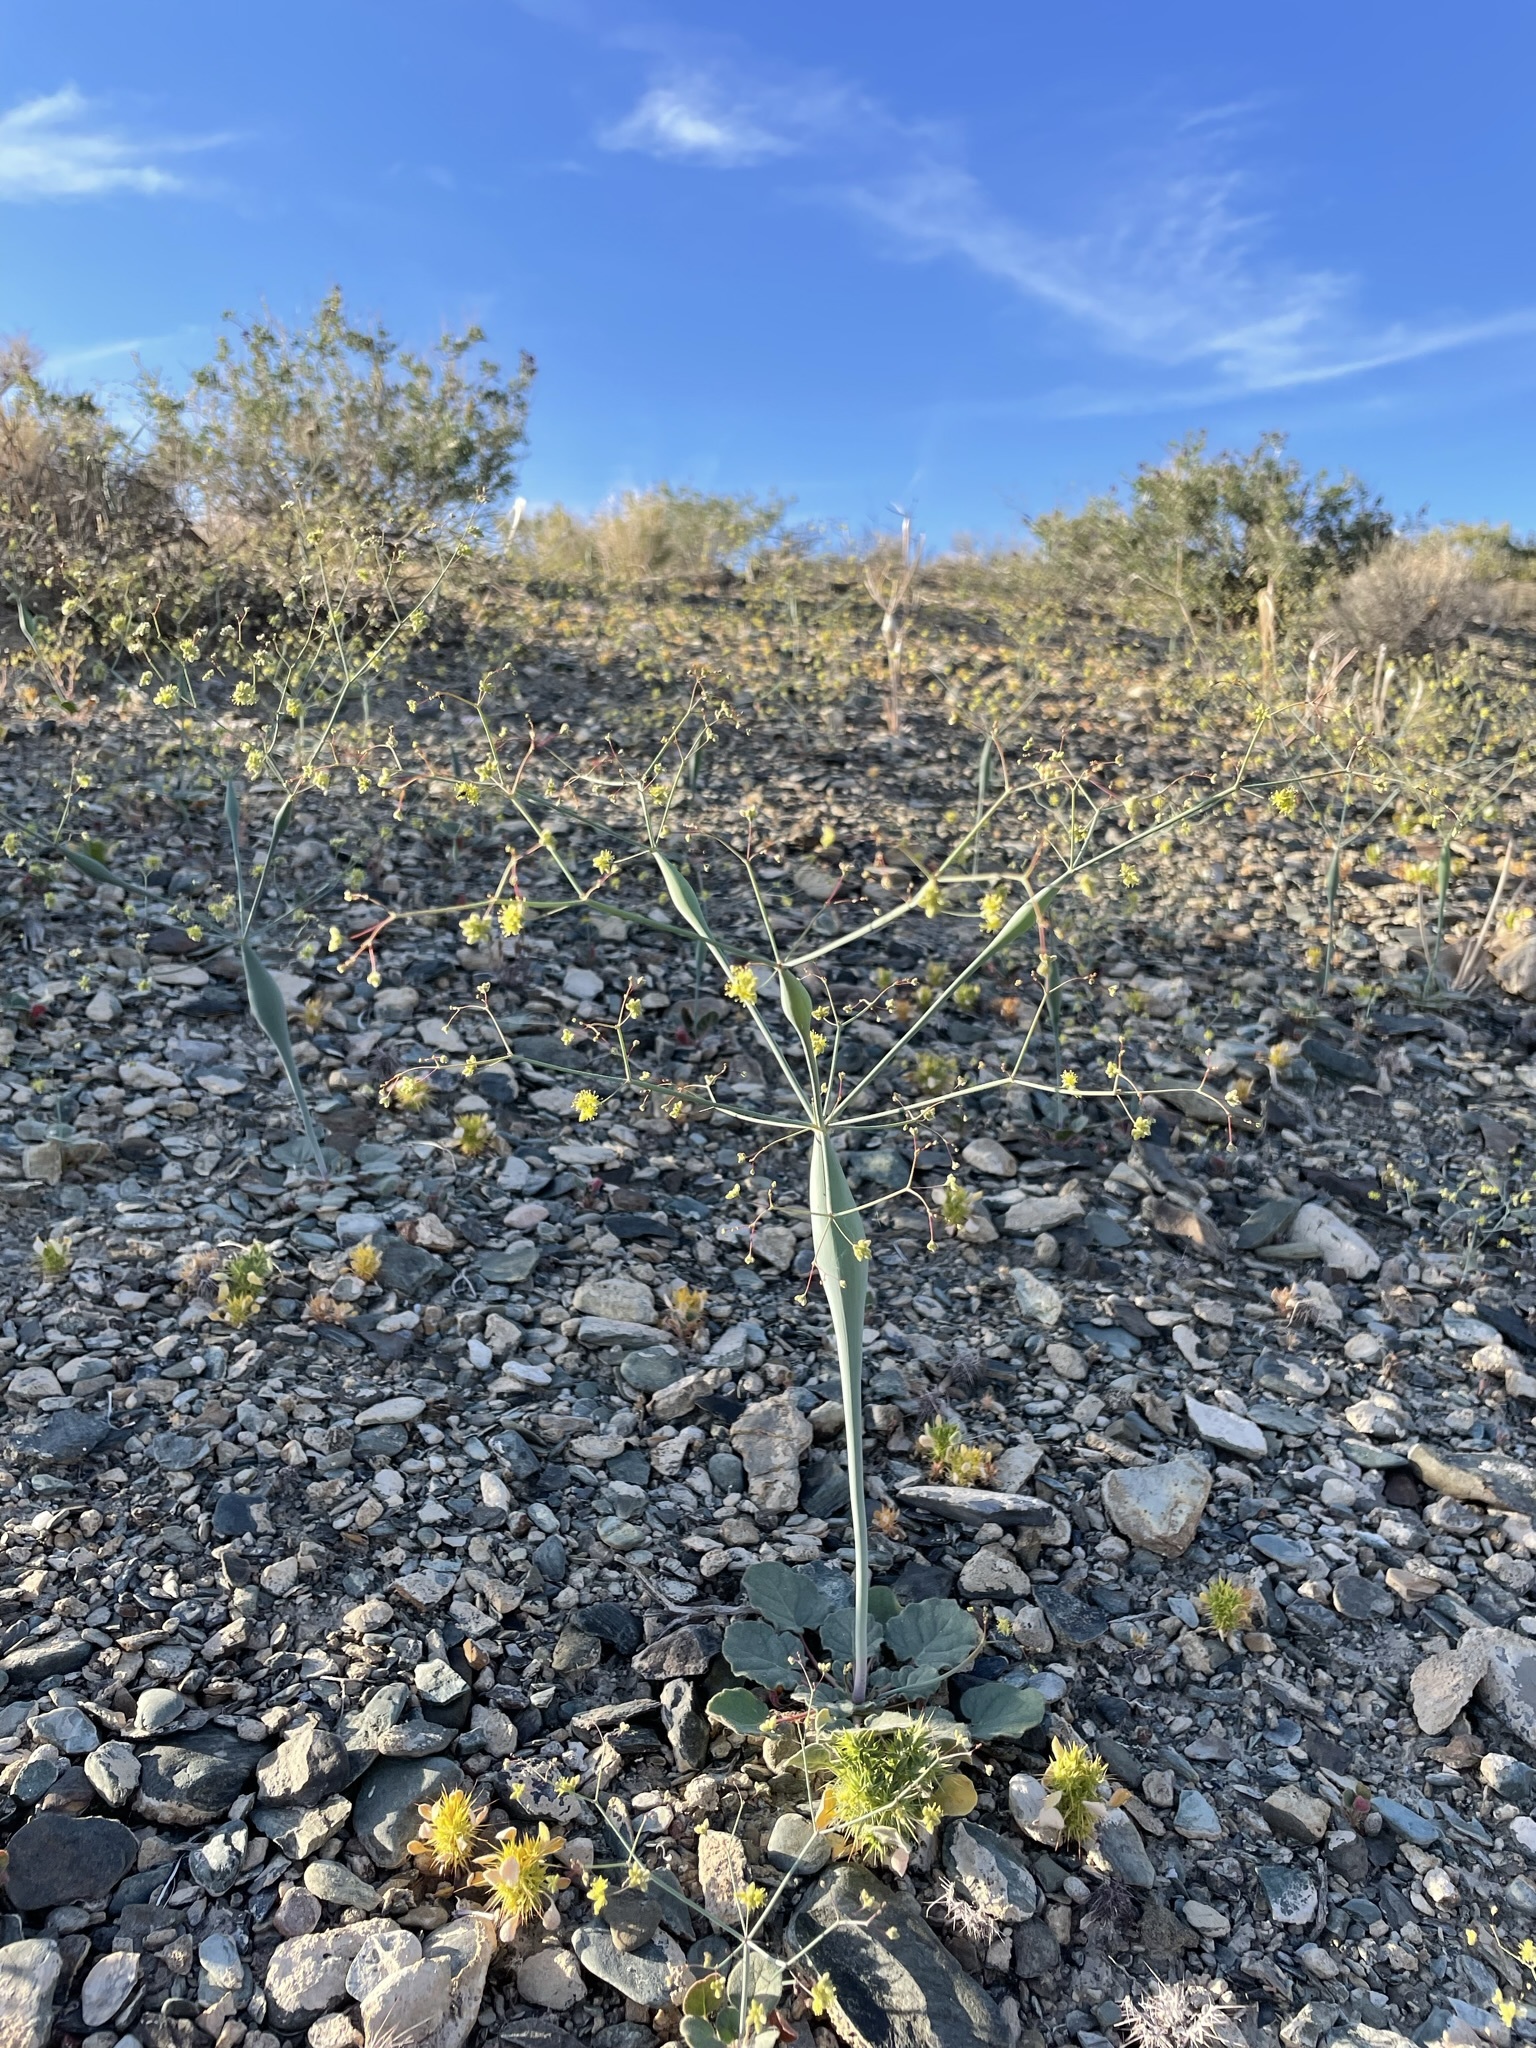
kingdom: Plantae
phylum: Tracheophyta
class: Magnoliopsida
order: Caryophyllales
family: Polygonaceae
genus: Eriogonum
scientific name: Eriogonum inflatum
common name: Desert trumpet
